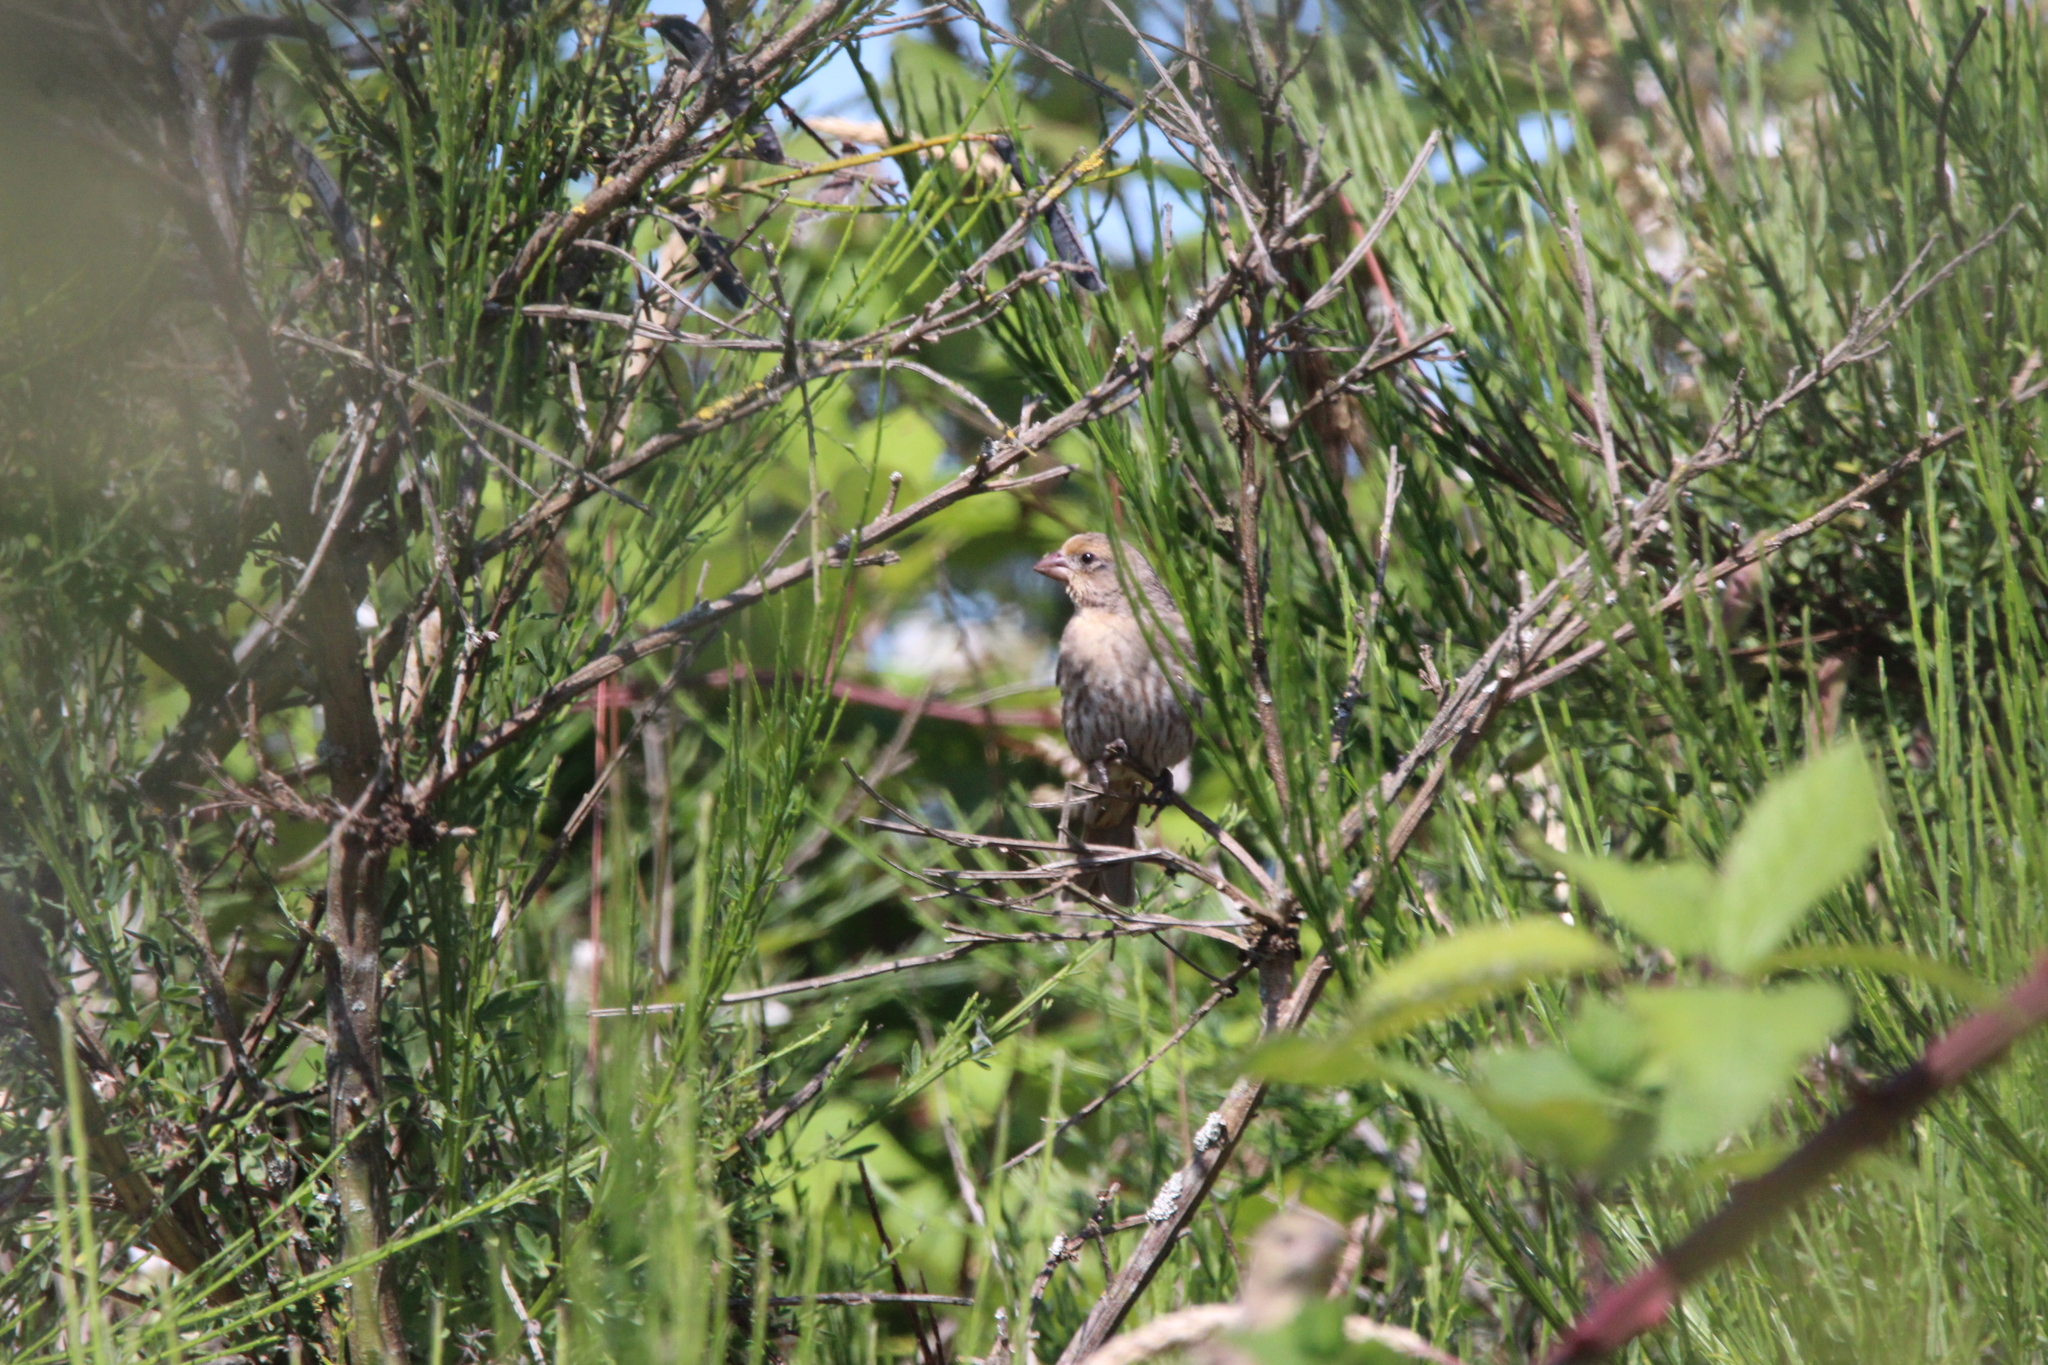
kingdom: Animalia
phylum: Chordata
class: Aves
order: Passeriformes
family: Fringillidae
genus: Haemorhous
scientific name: Haemorhous mexicanus
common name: House finch
